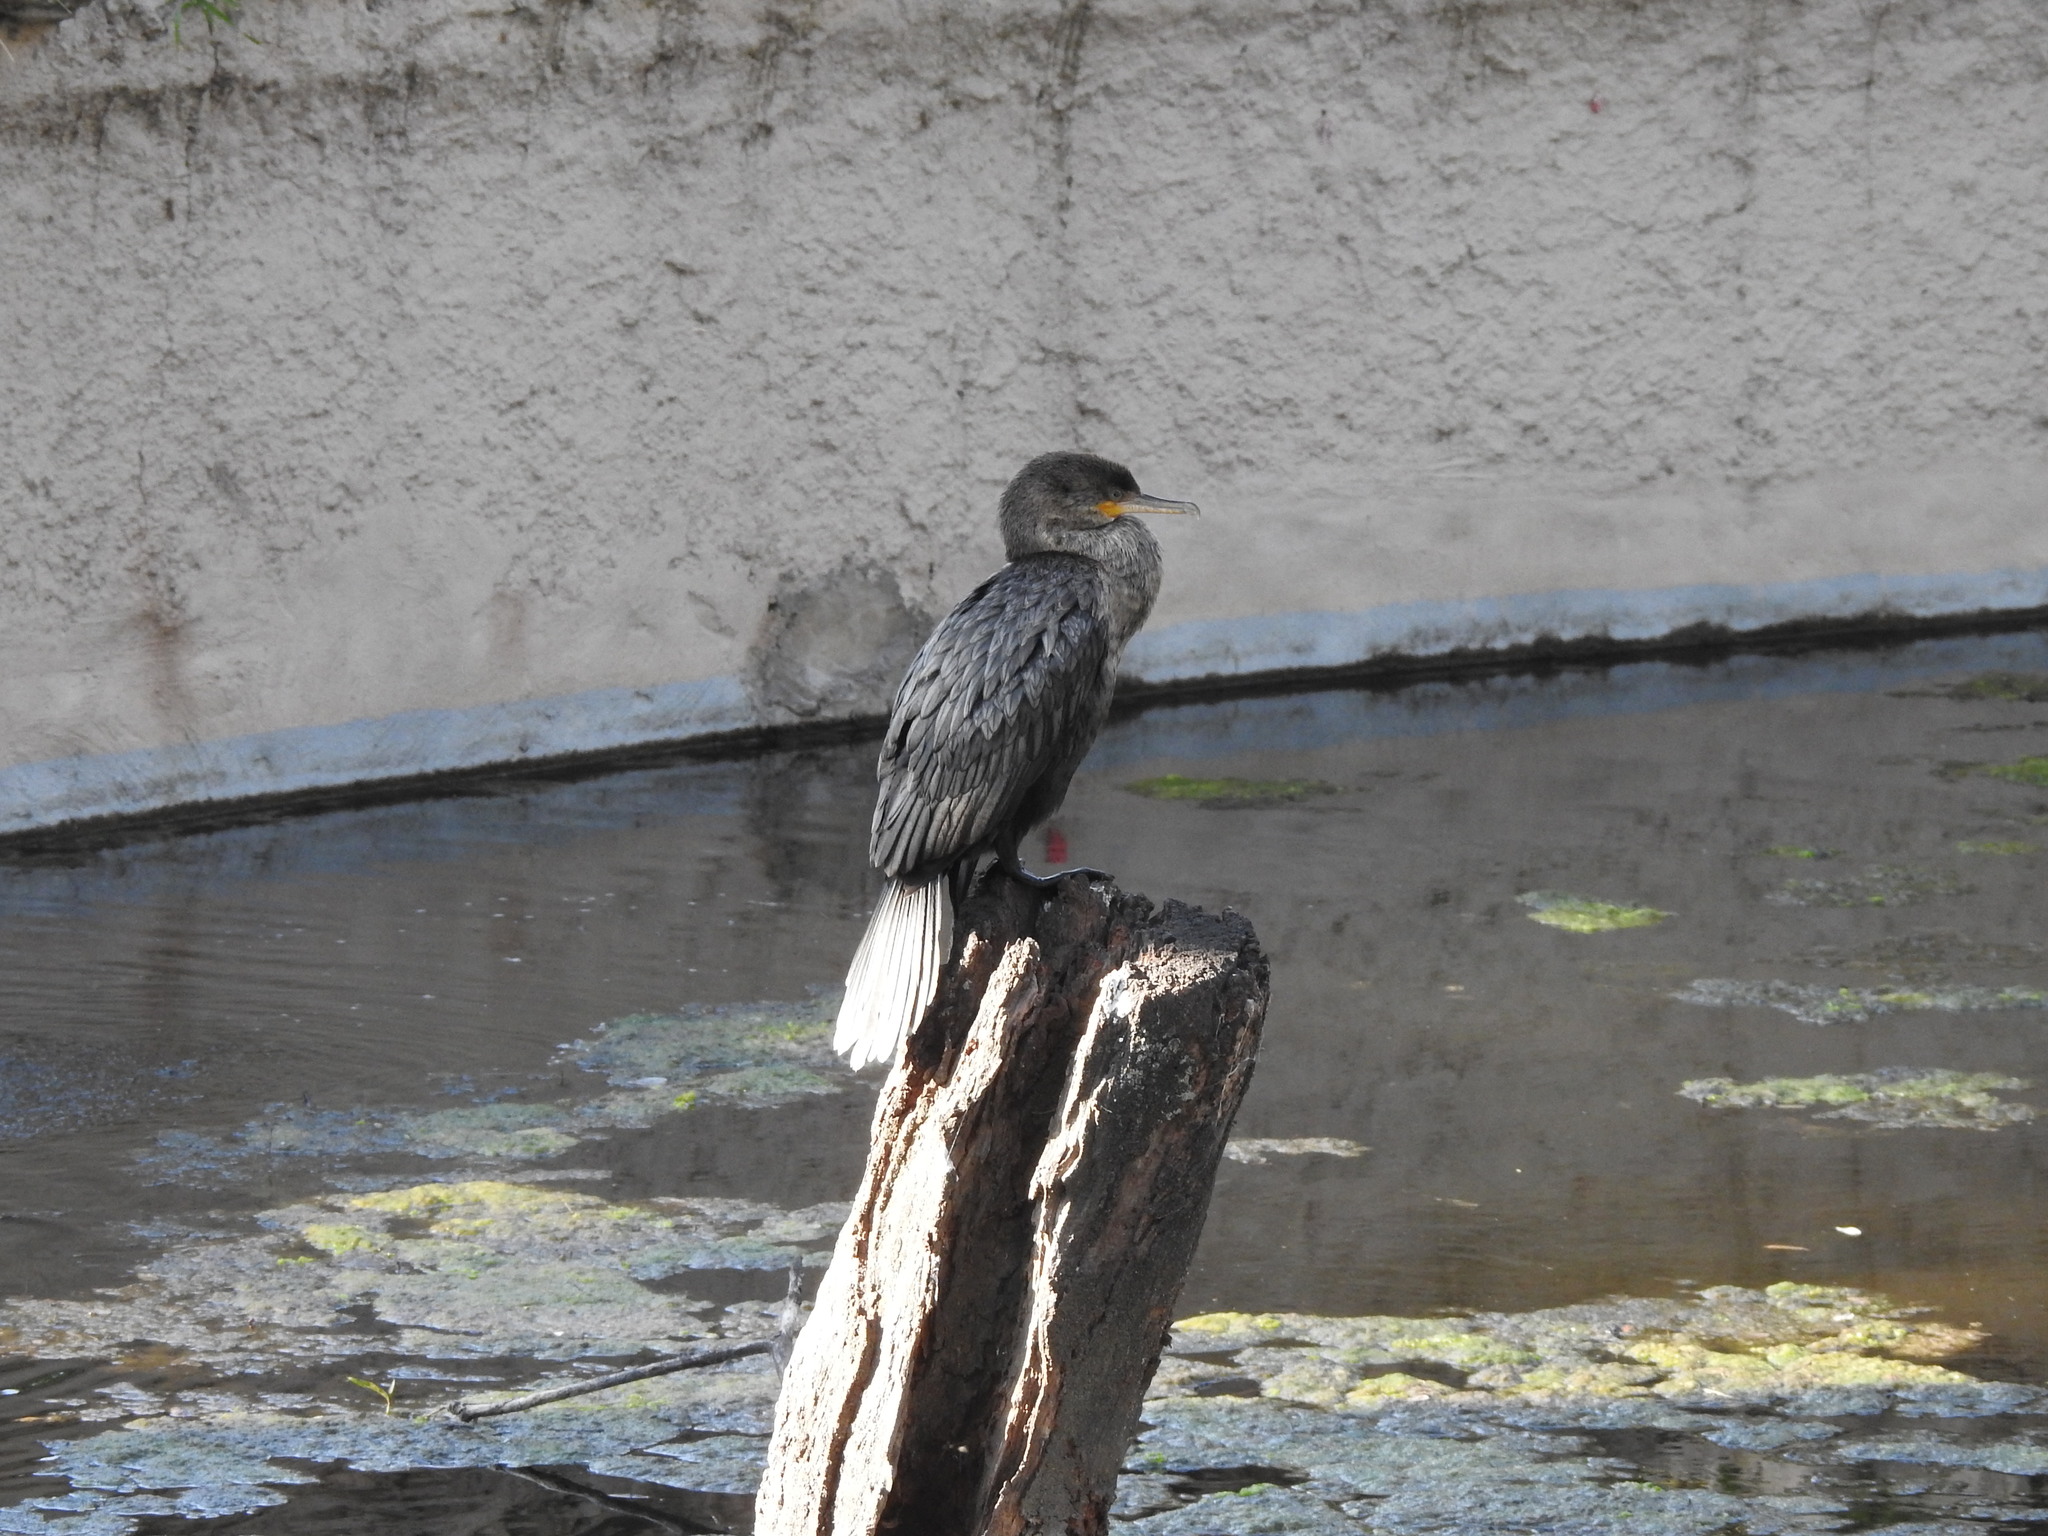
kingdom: Animalia
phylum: Chordata
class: Aves
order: Suliformes
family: Phalacrocoracidae
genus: Phalacrocorax
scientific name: Phalacrocorax brasilianus
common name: Neotropic cormorant
